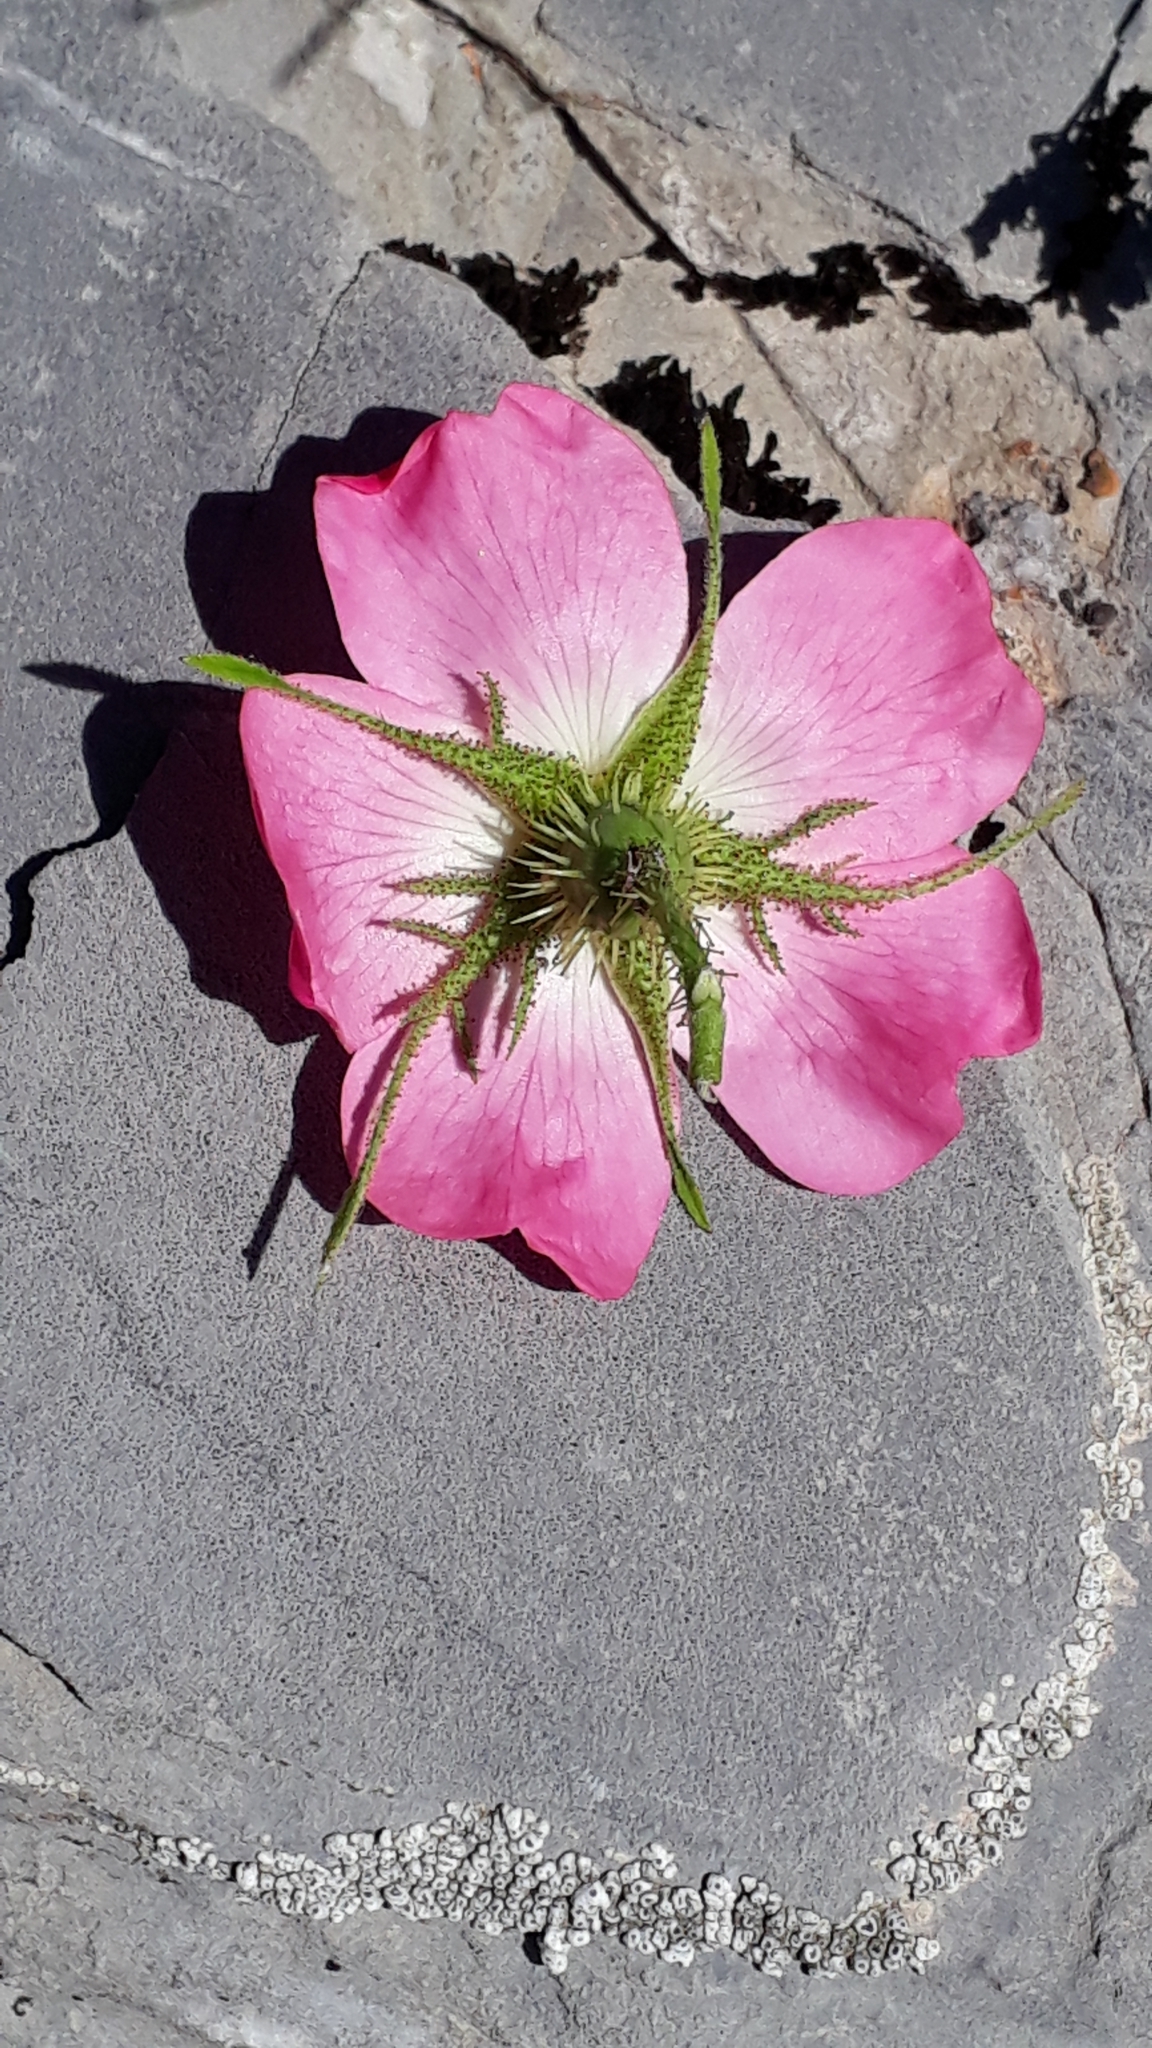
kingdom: Plantae
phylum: Tracheophyta
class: Magnoliopsida
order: Rosales
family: Rosaceae
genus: Rosa
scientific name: Rosa villosa
